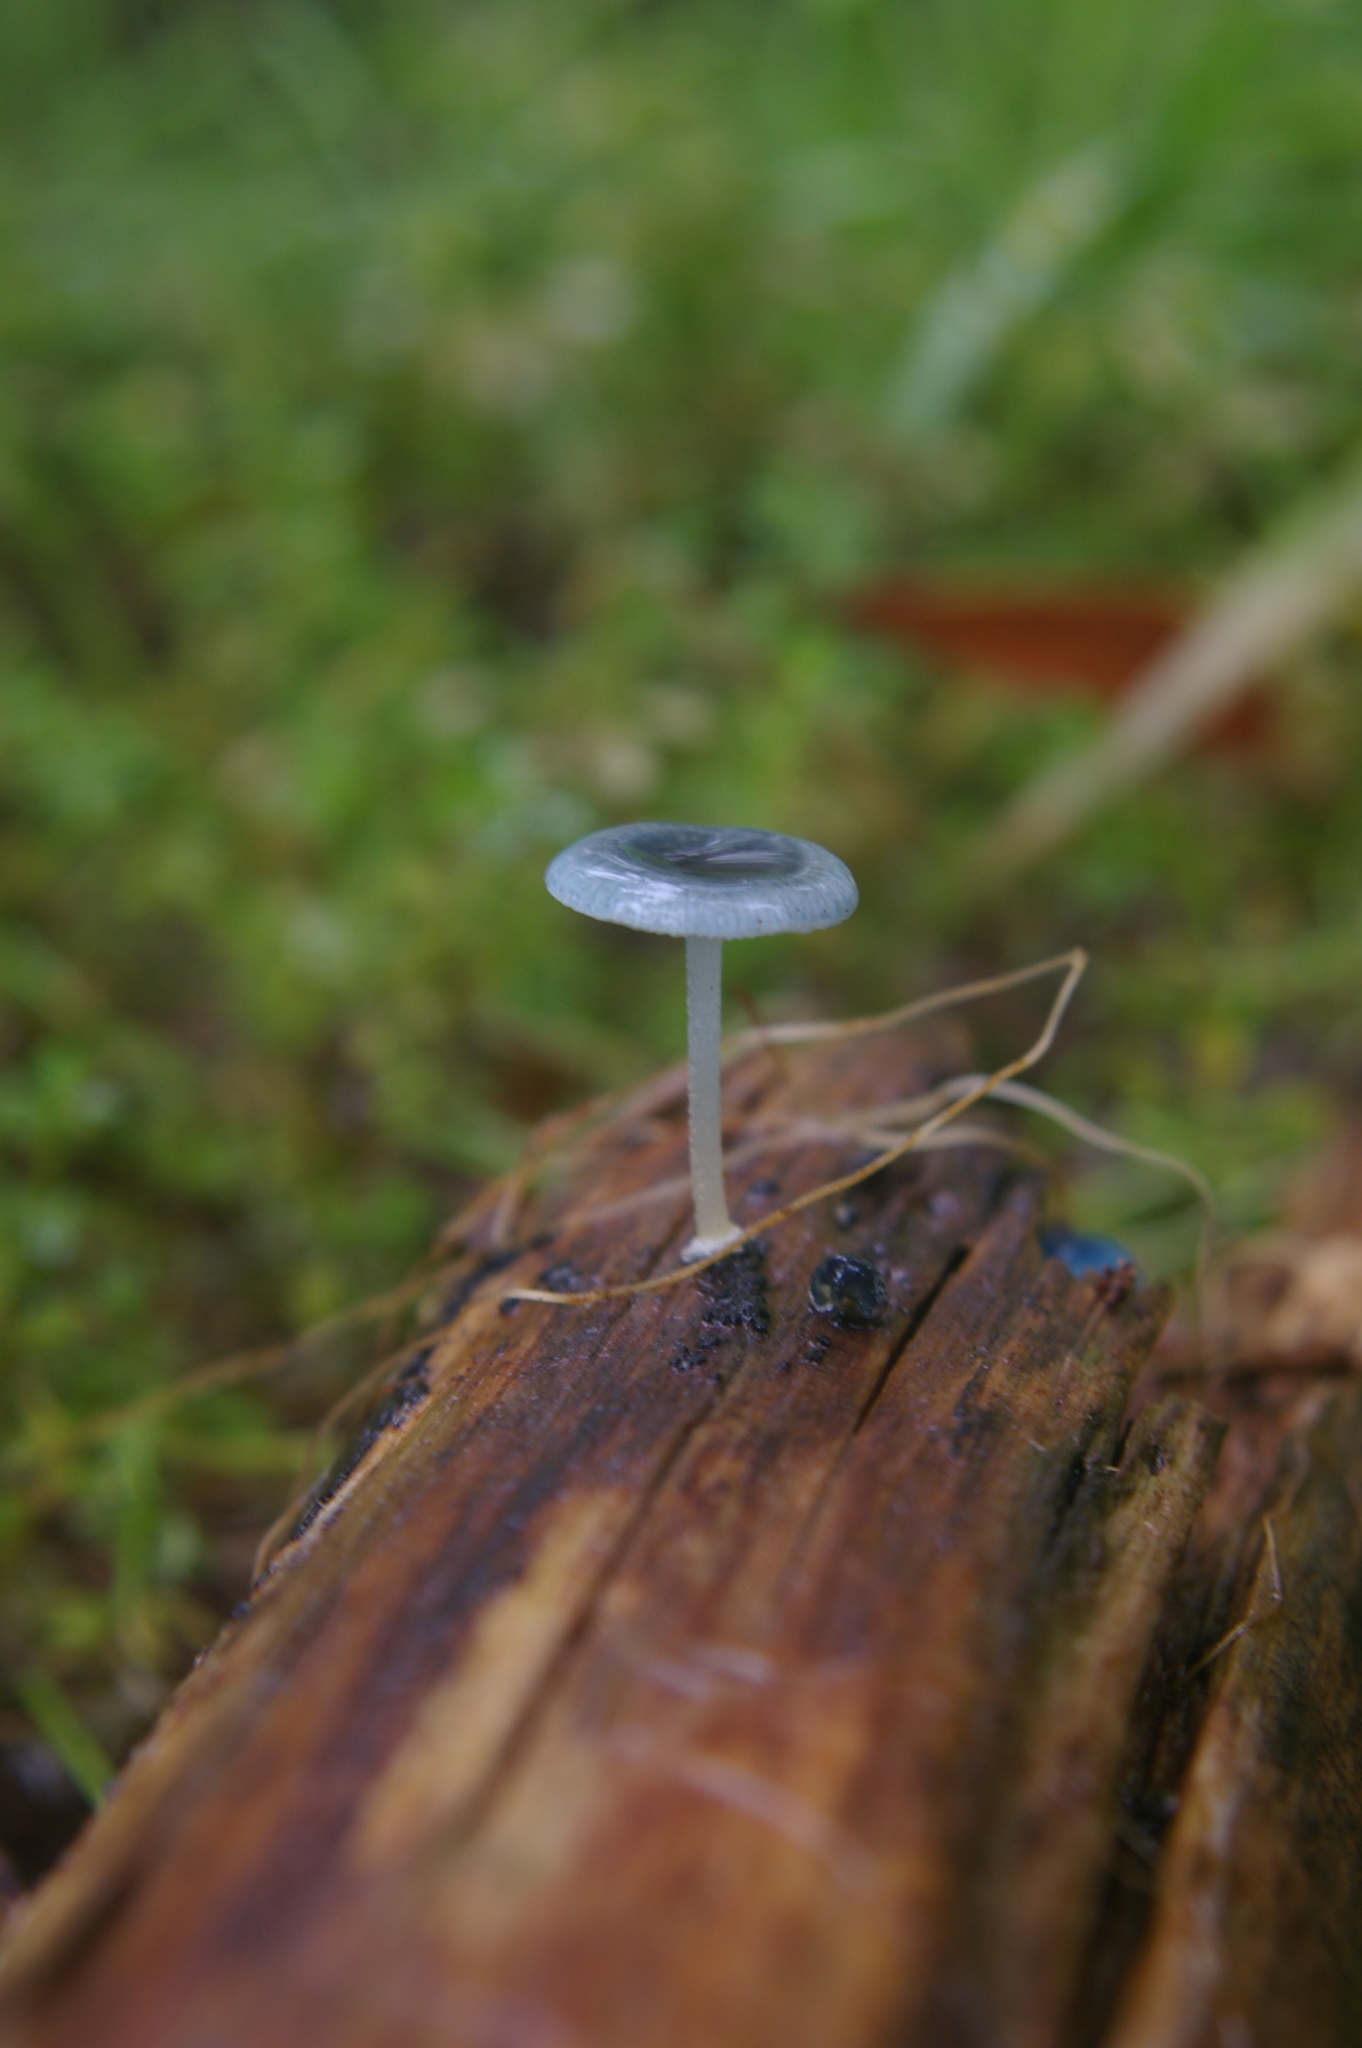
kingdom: Fungi
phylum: Basidiomycota
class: Agaricomycetes
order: Agaricales
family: Mycenaceae
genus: Mycena
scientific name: Mycena interrupta
